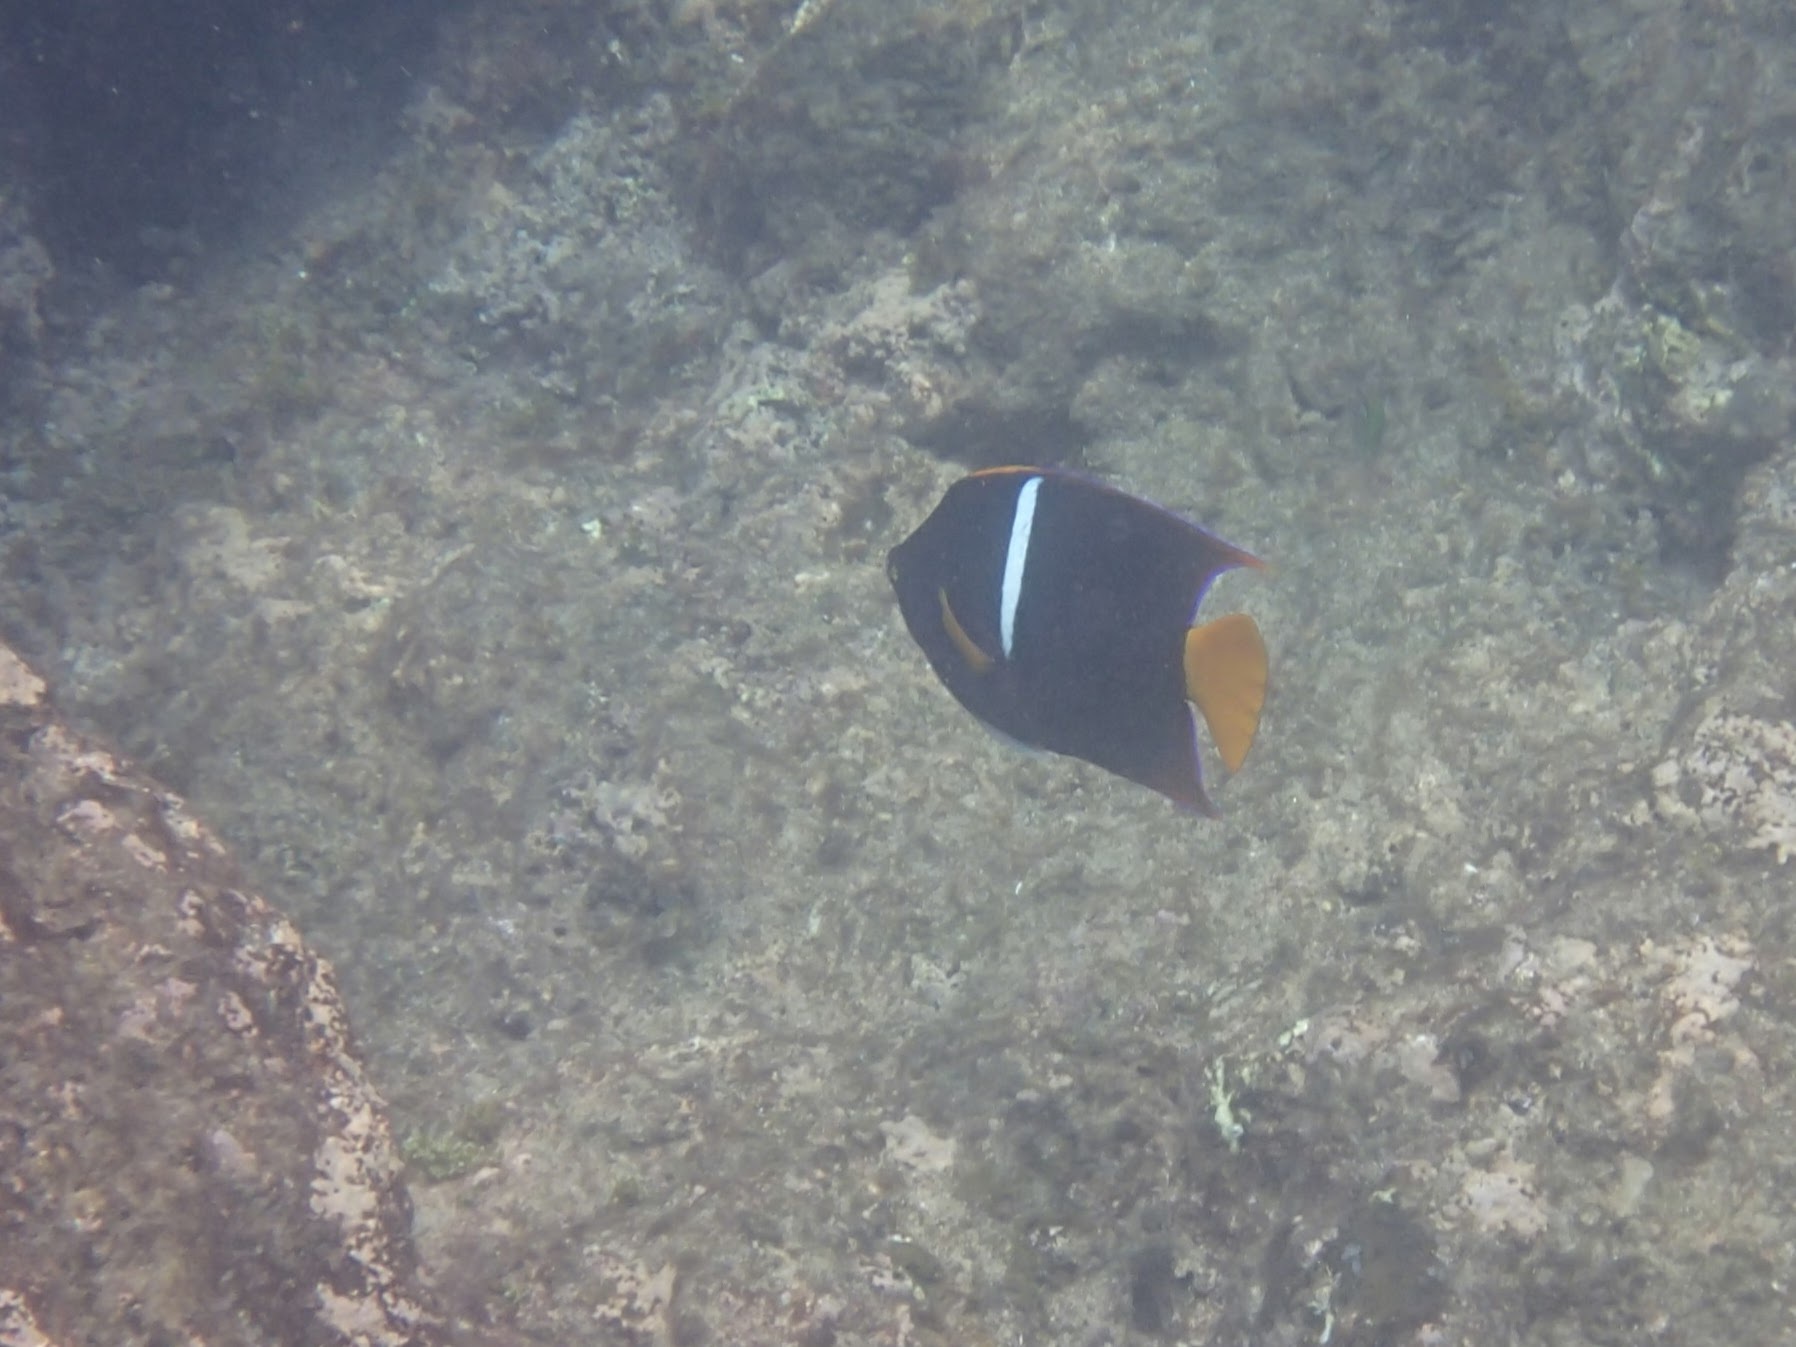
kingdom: Animalia
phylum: Chordata
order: Perciformes
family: Pomacanthidae
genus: Holacanthus
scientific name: Holacanthus passer
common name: King angelfish
